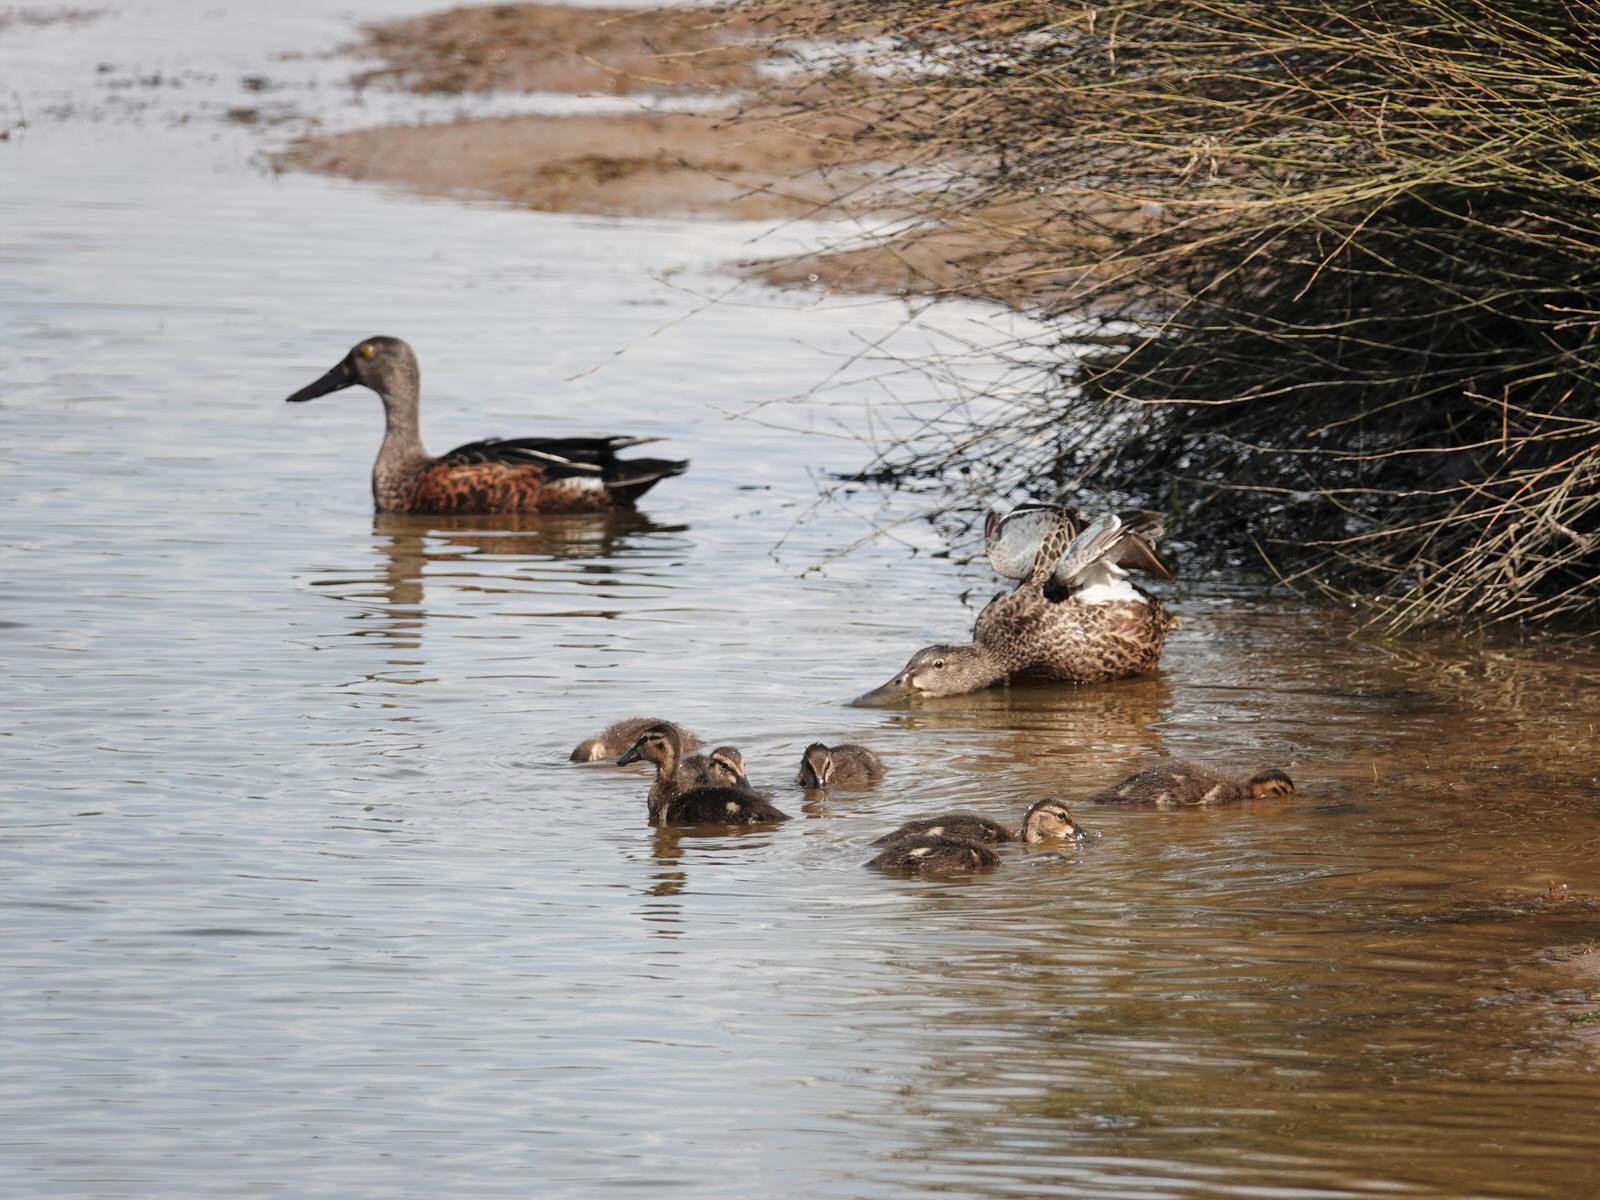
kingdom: Animalia
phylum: Chordata
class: Aves
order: Anseriformes
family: Anatidae
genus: Spatula
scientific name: Spatula rhynchotis
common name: Australian shoveler
